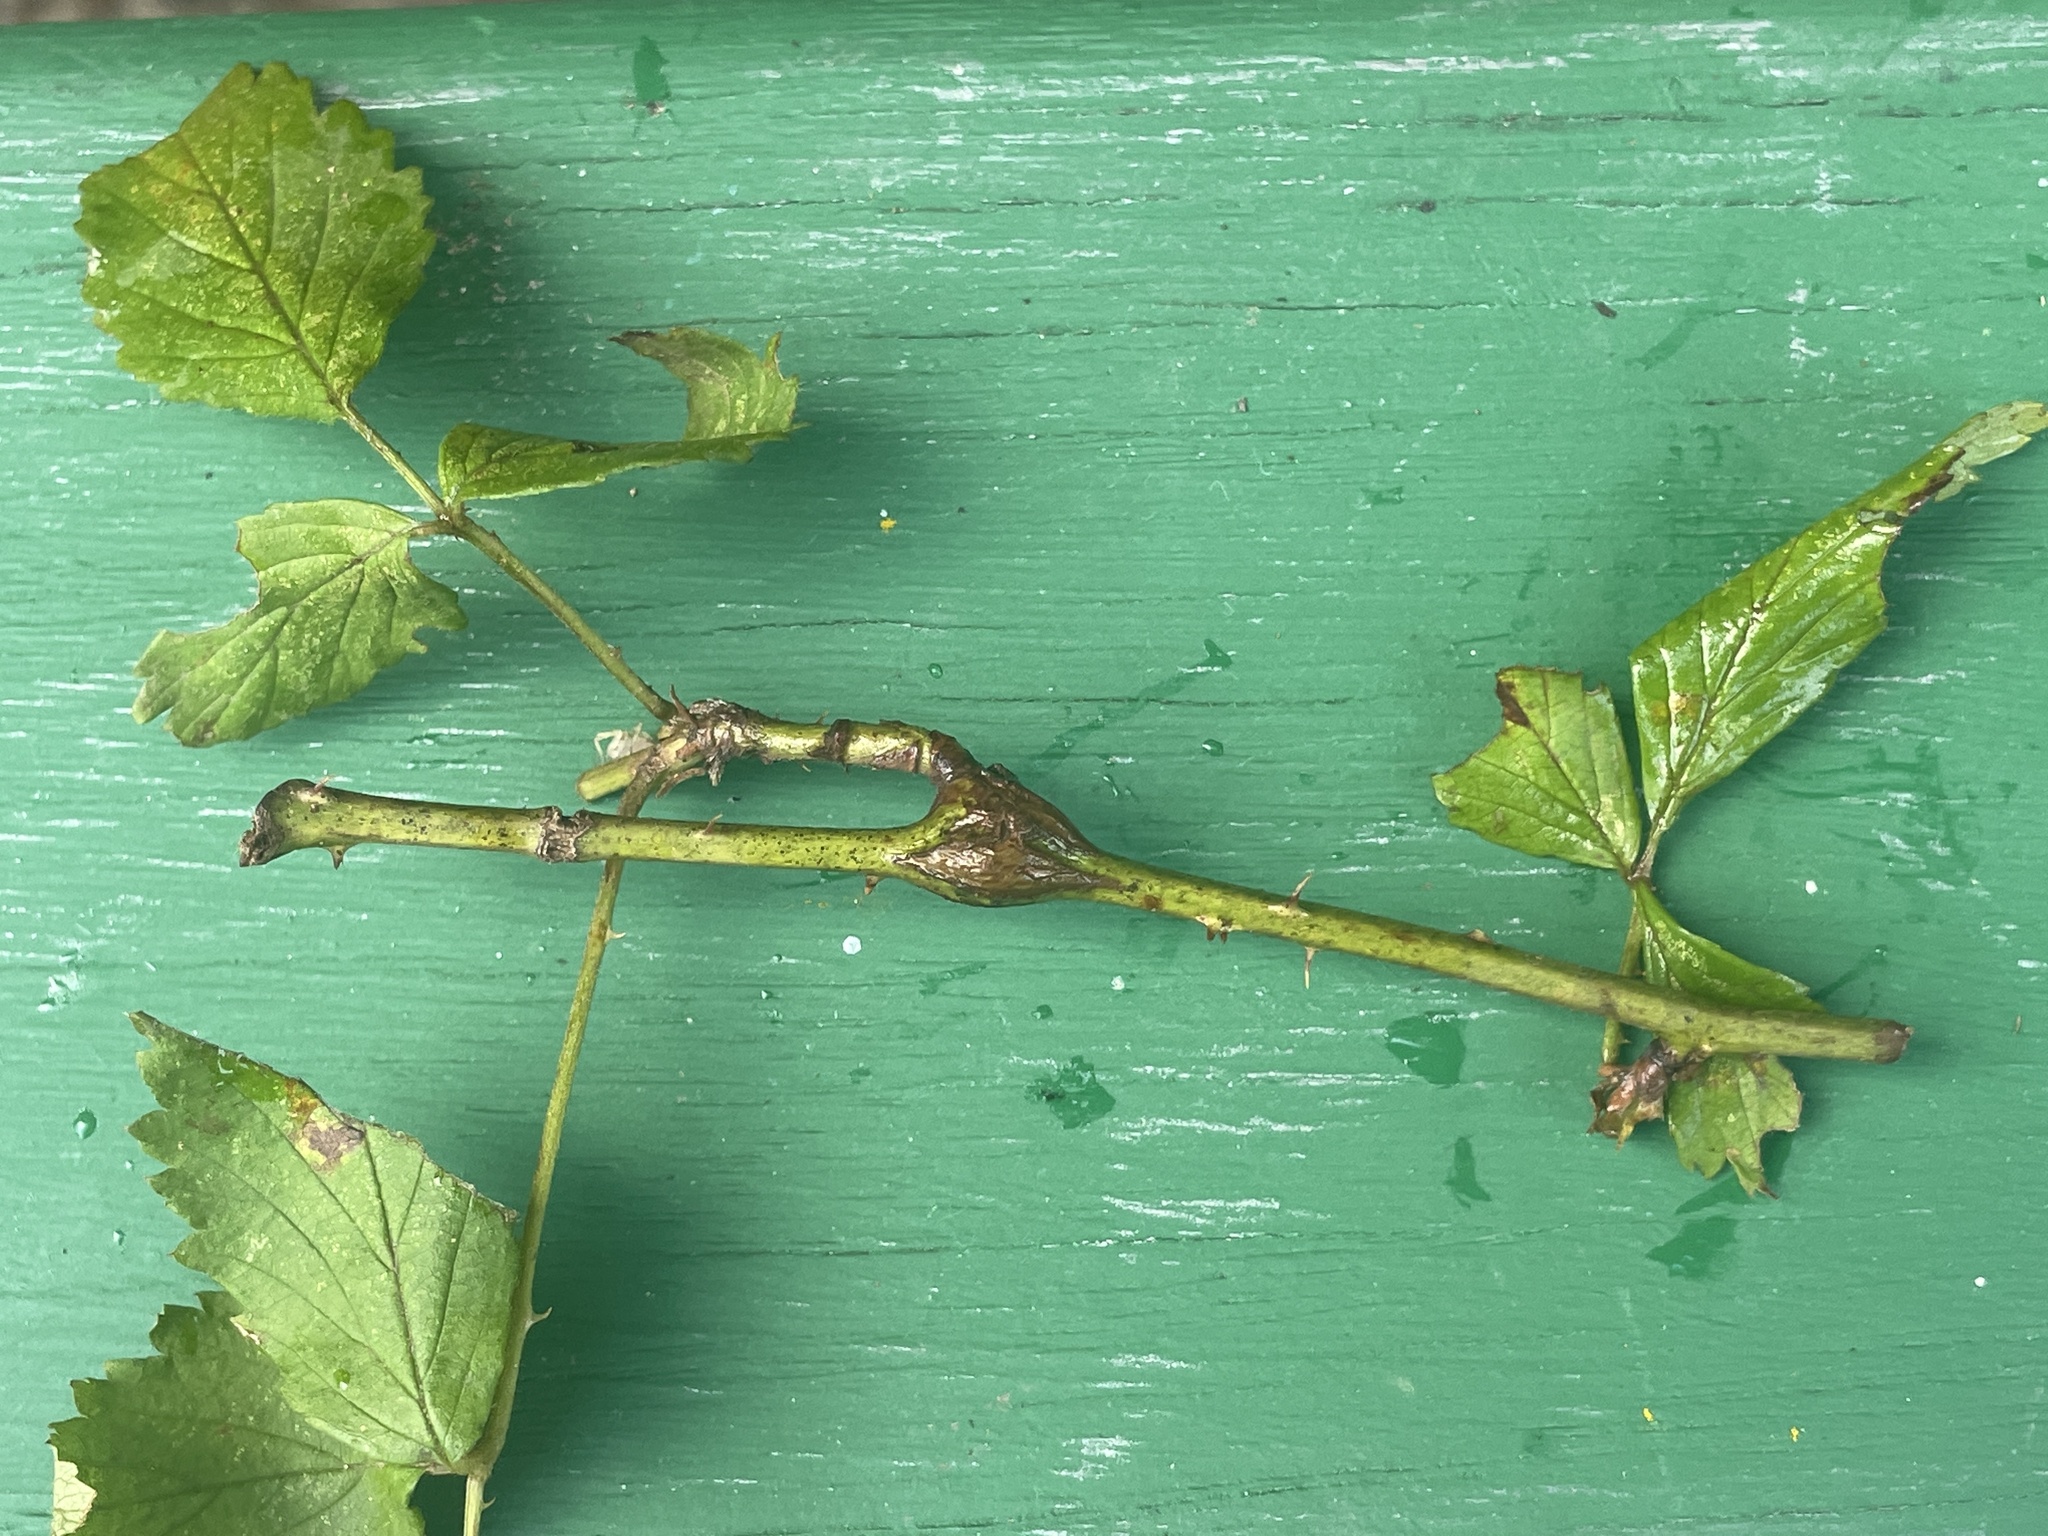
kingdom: Animalia
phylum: Arthropoda
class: Insecta
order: Diptera
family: Cecidomyiidae
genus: Neolasioptera
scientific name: Neolasioptera nodulosa
